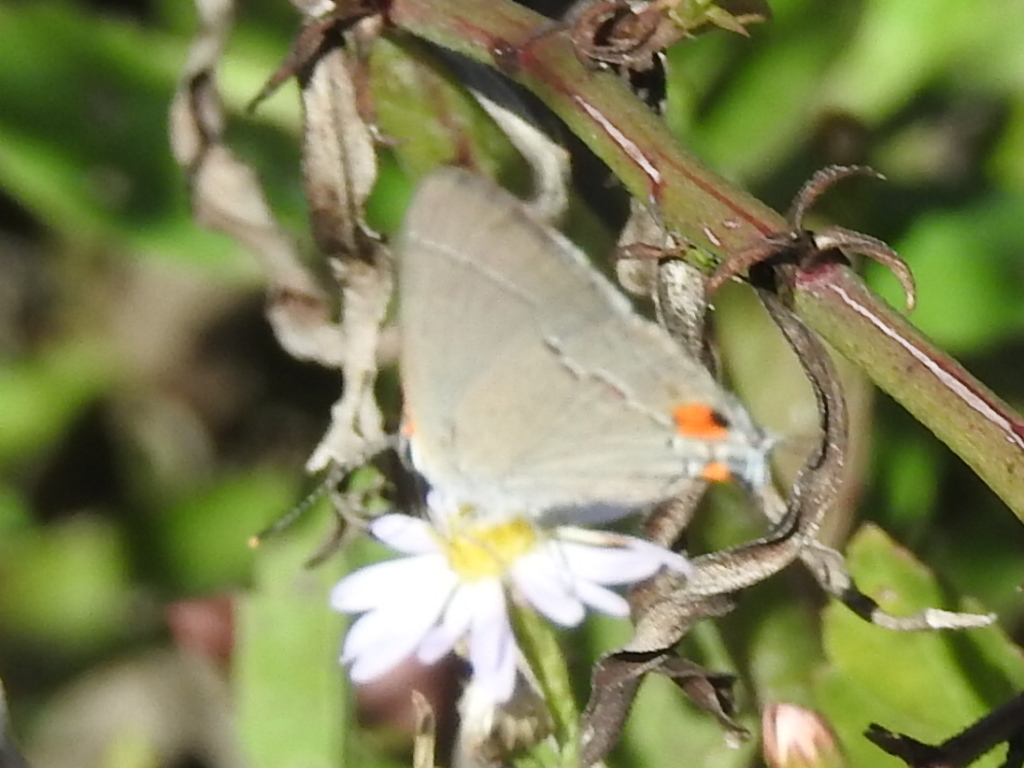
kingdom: Animalia
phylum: Arthropoda
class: Insecta
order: Lepidoptera
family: Lycaenidae
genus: Strymon
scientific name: Strymon melinus
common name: Gray hairstreak
